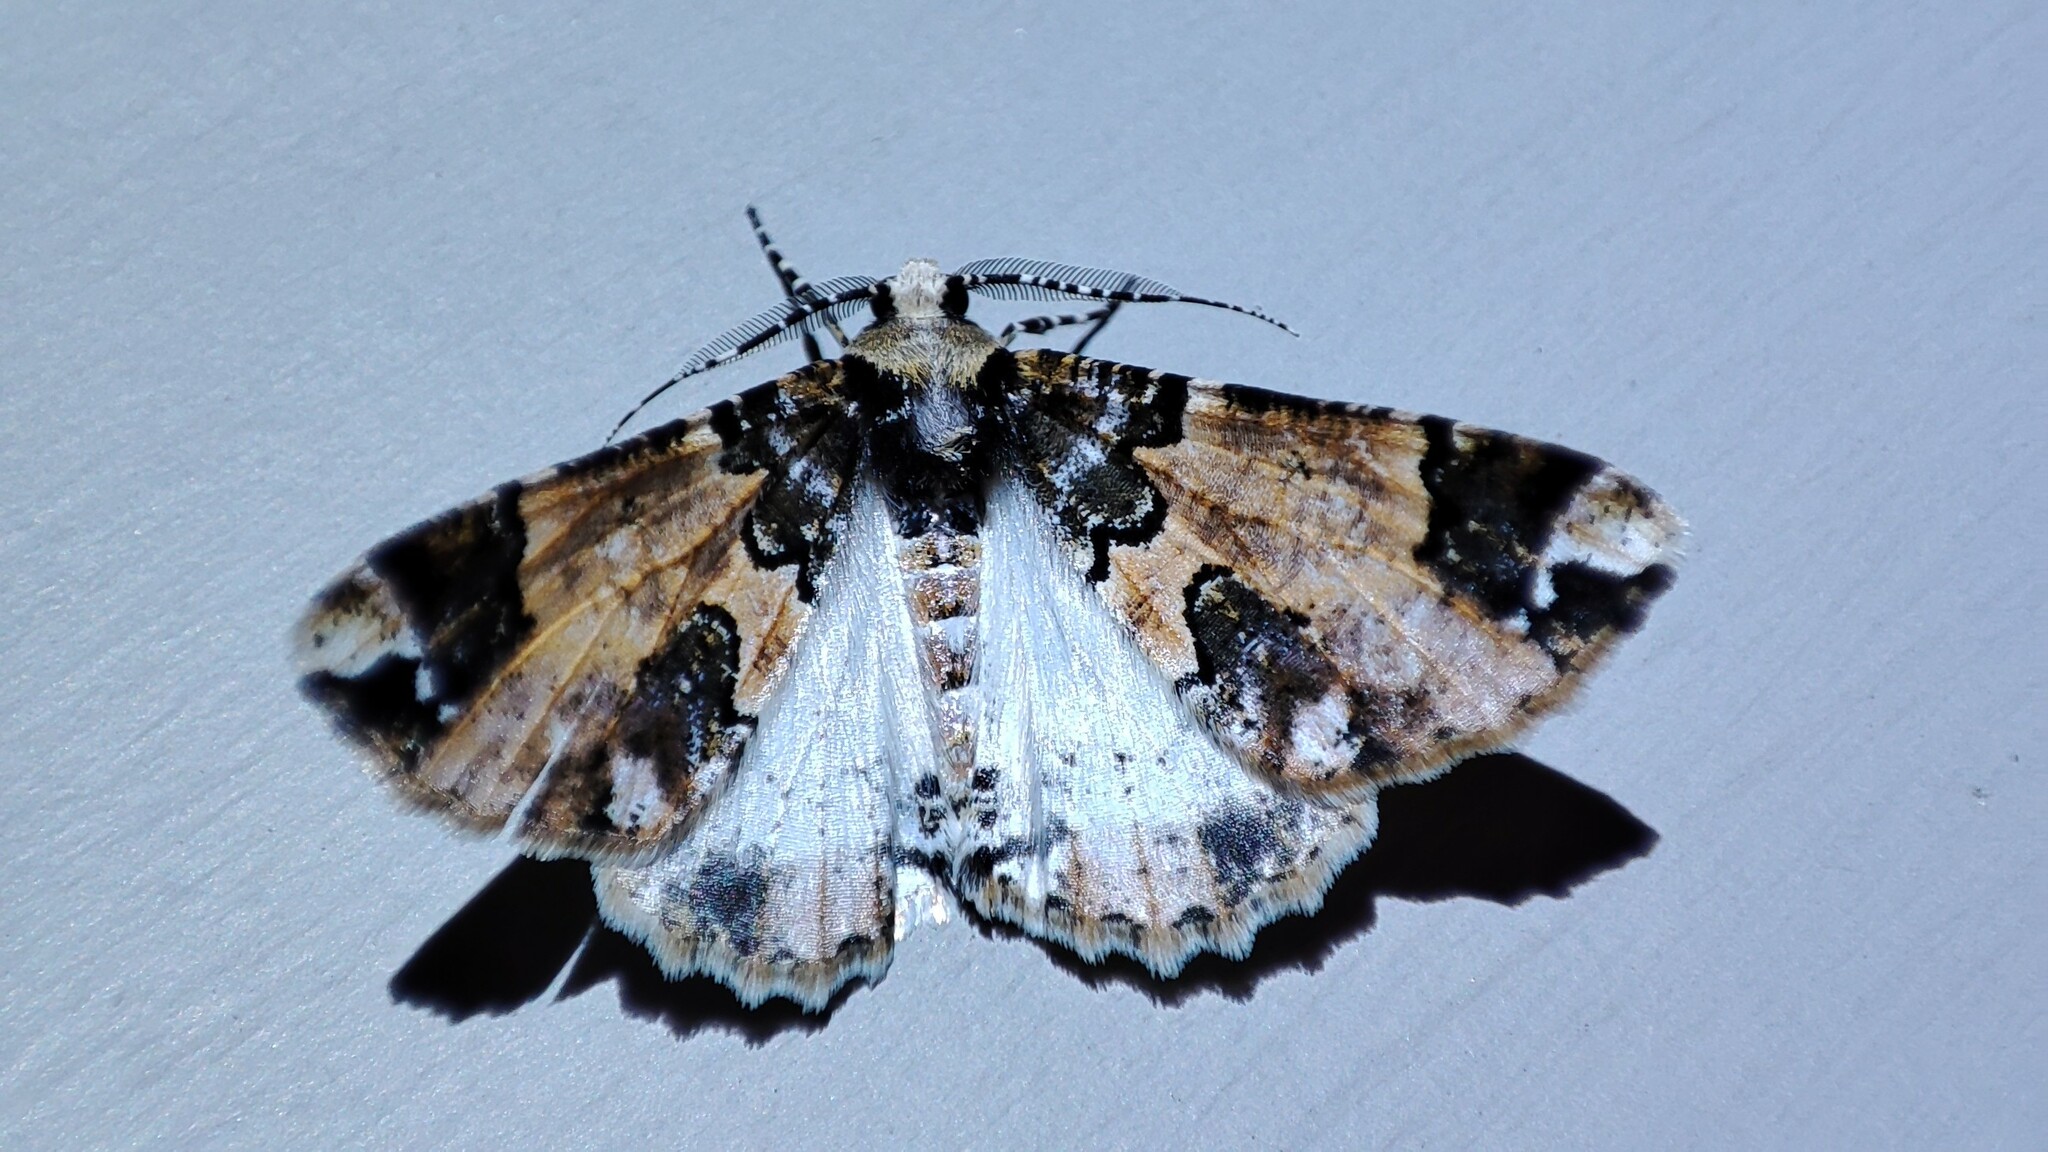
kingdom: Animalia
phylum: Arthropoda
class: Insecta
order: Lepidoptera
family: Geometridae
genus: Oedicentra
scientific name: Oedicentra albipennis
